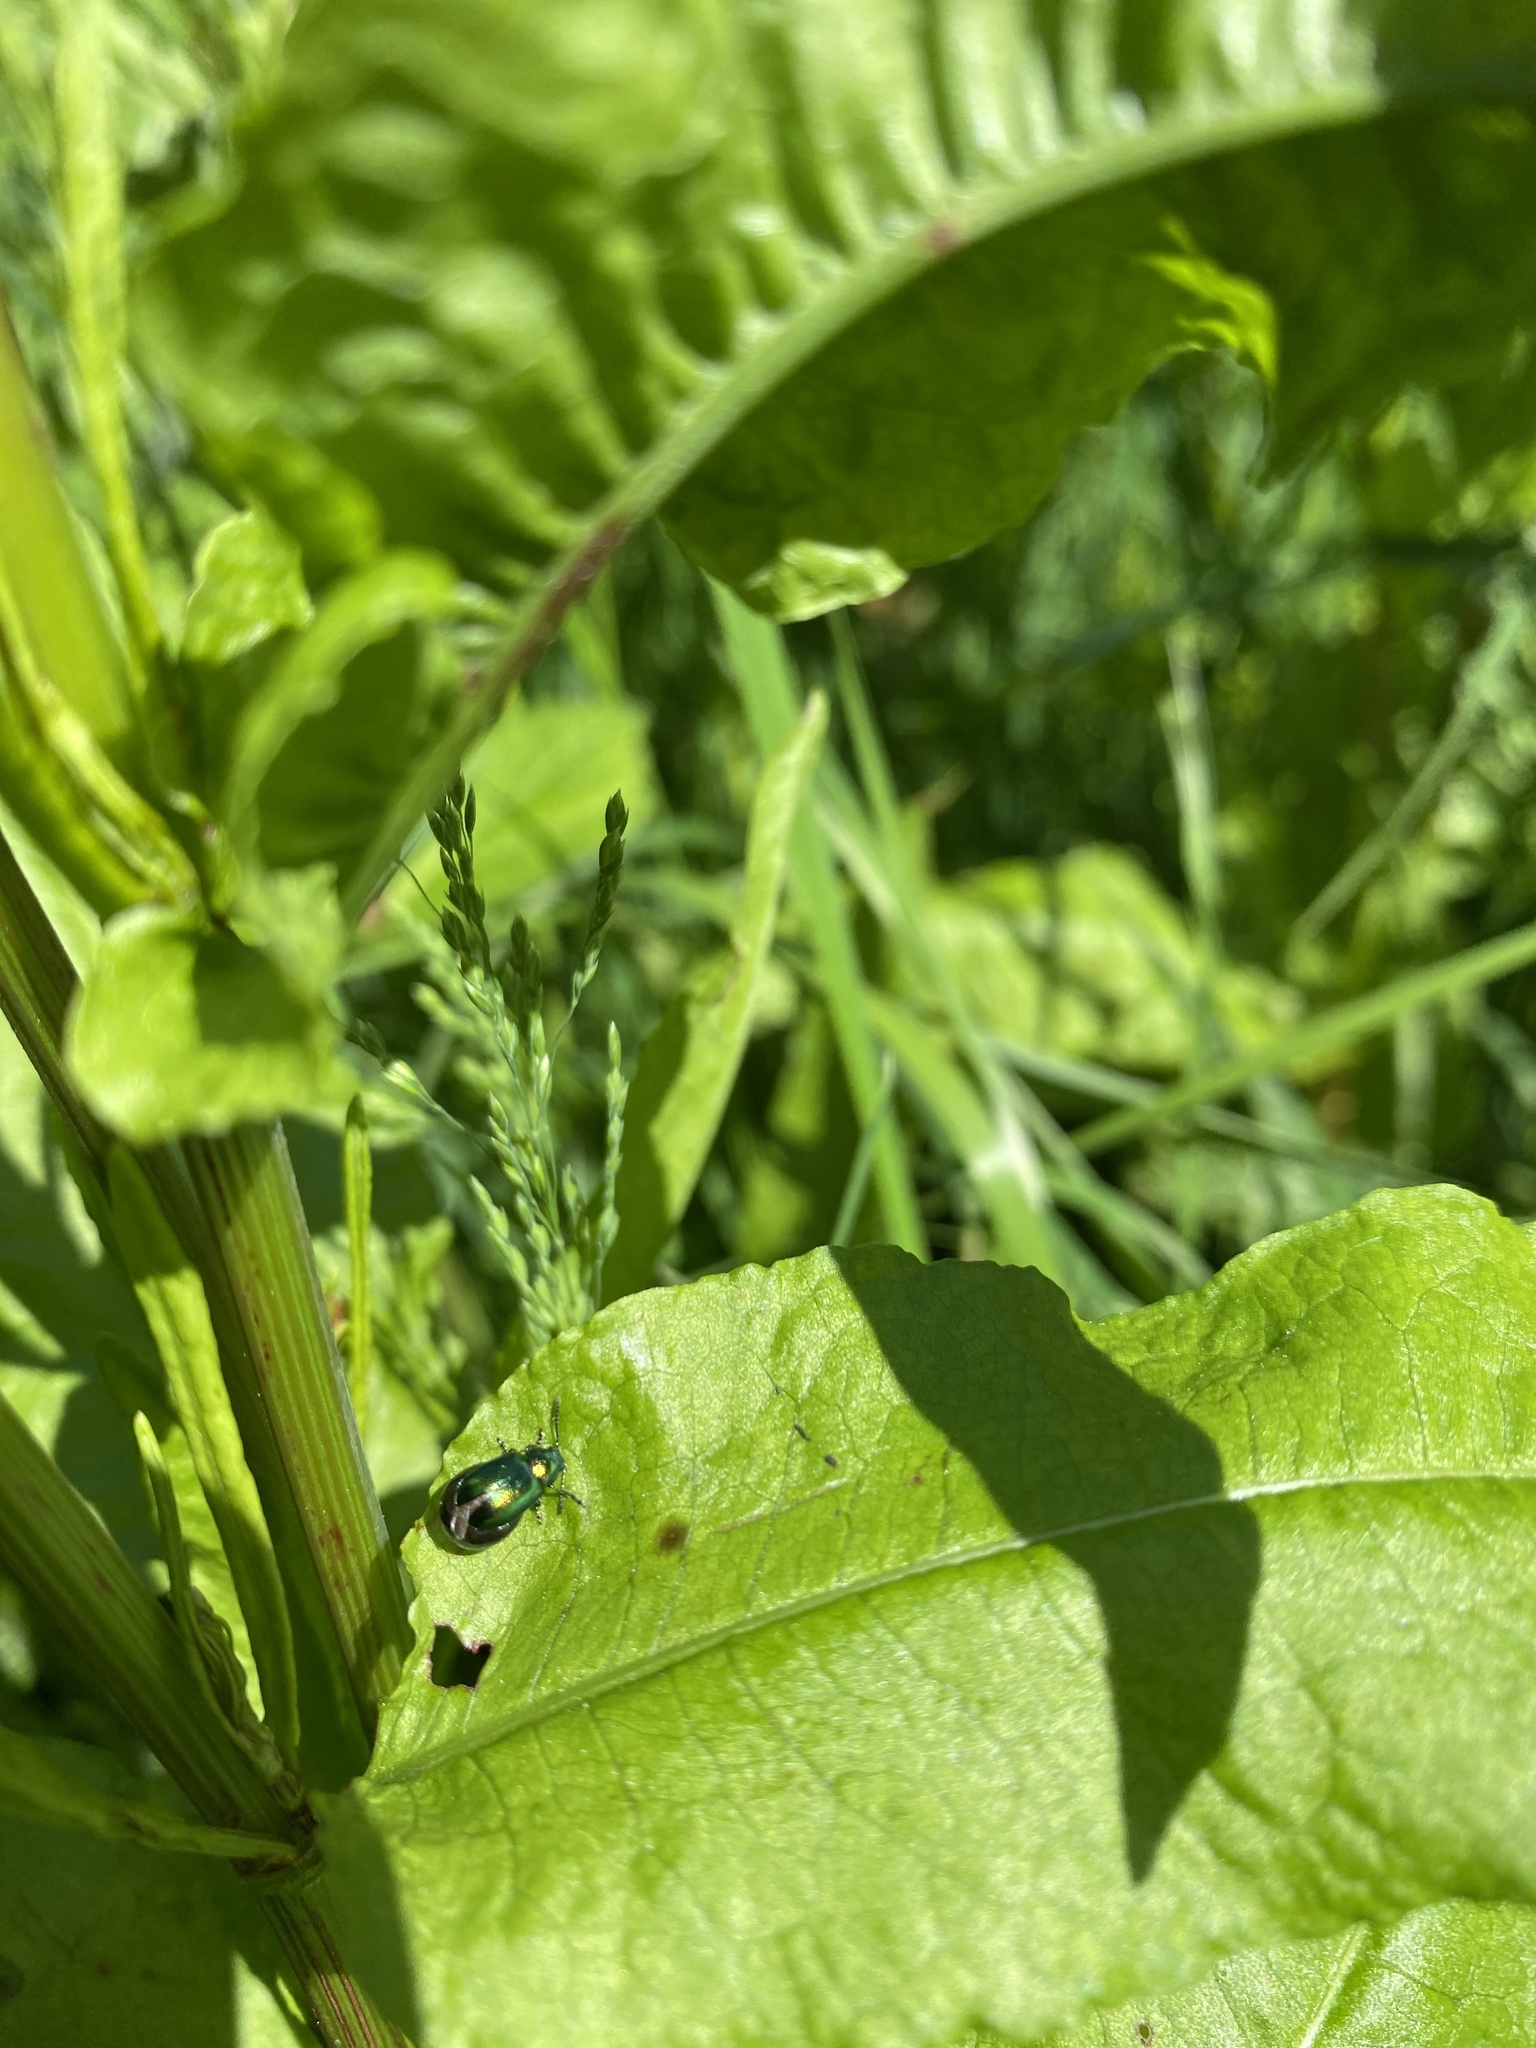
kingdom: Animalia
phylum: Arthropoda
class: Insecta
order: Coleoptera
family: Chrysomelidae
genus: Gastrophysa
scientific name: Gastrophysa viridula
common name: Green dock beetle
